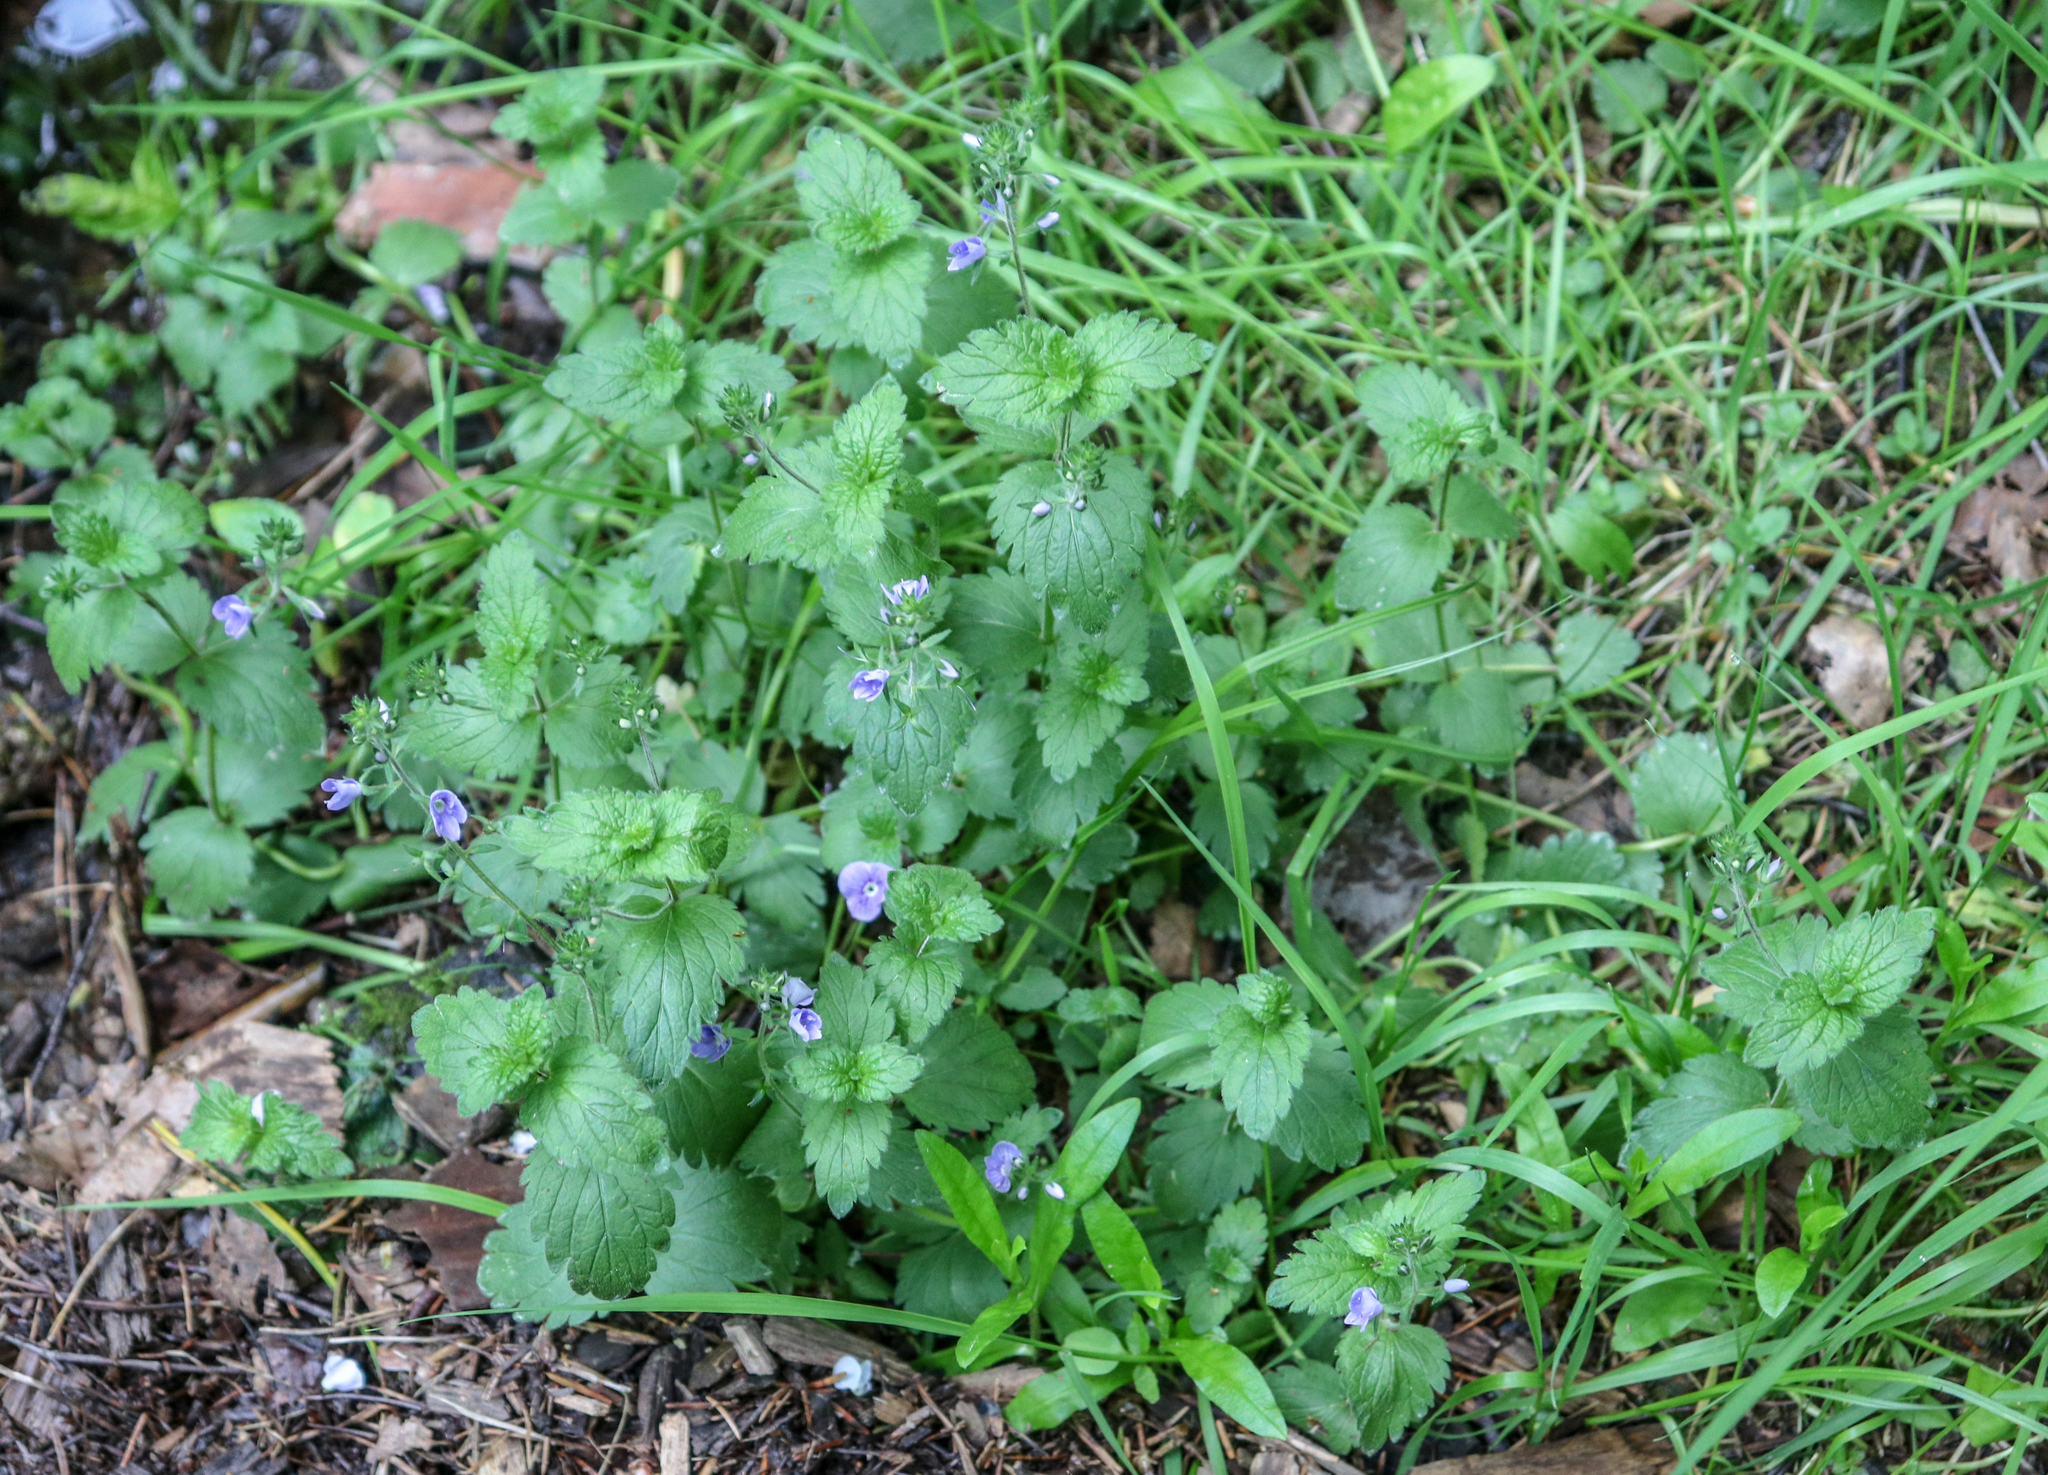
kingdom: Plantae
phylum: Tracheophyta
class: Magnoliopsida
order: Lamiales
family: Plantaginaceae
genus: Veronica
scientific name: Veronica chamaedrys
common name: Germander speedwell
